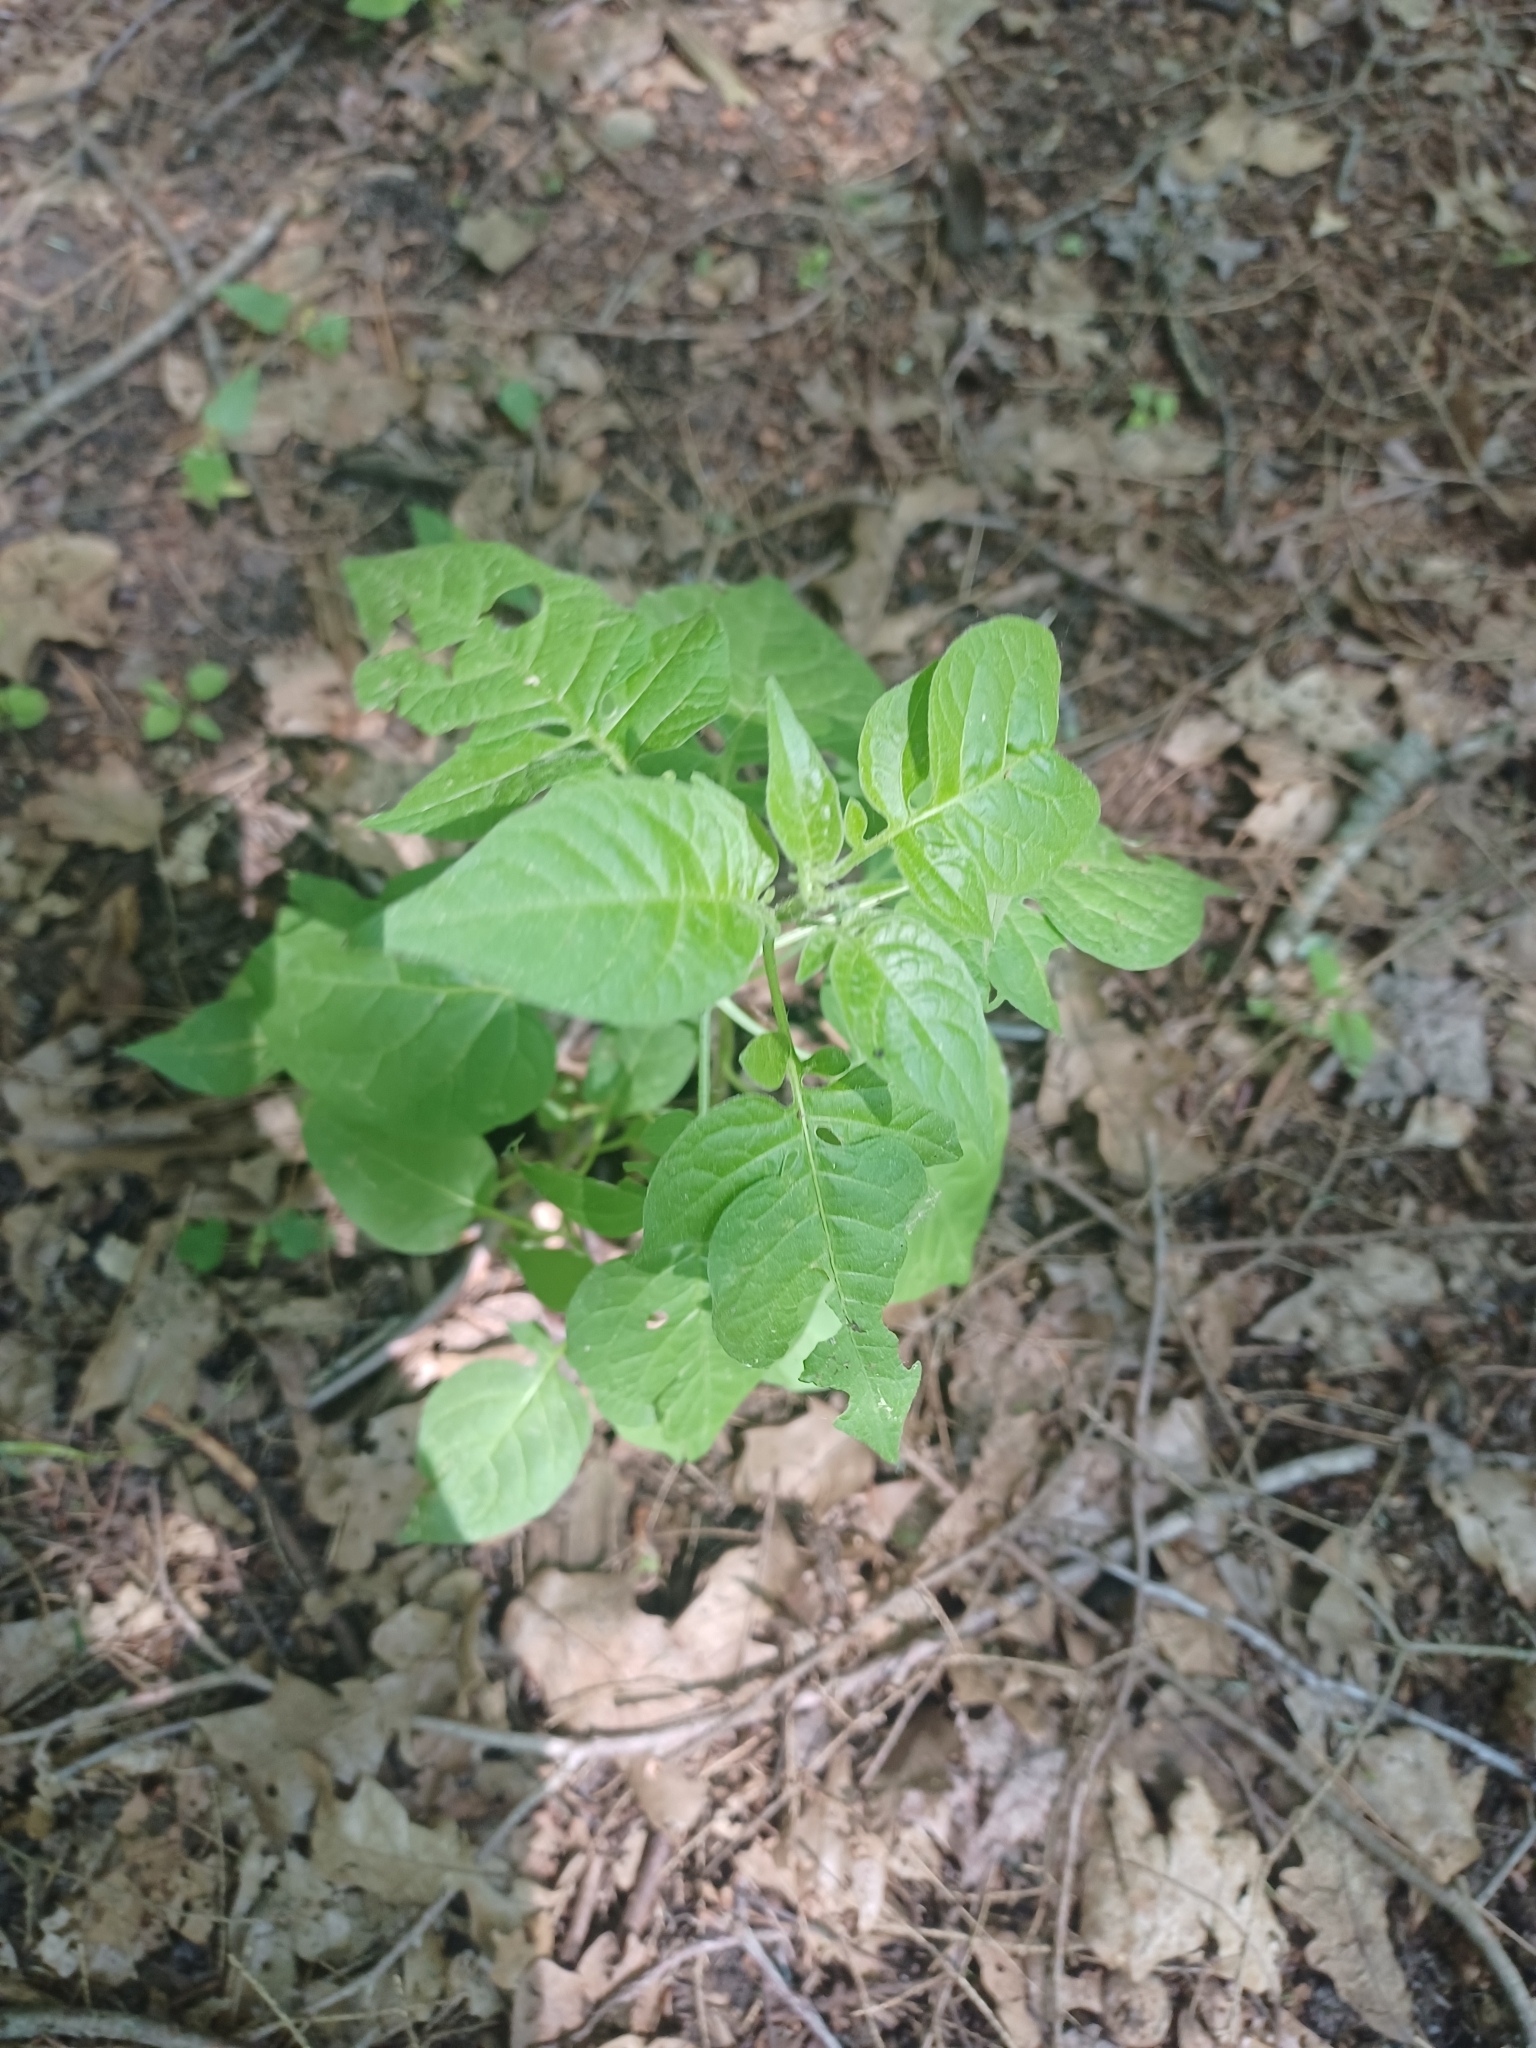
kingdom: Plantae
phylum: Tracheophyta
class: Magnoliopsida
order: Solanales
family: Solanaceae
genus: Solanum
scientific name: Solanum dulcamara
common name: Climbing nightshade
